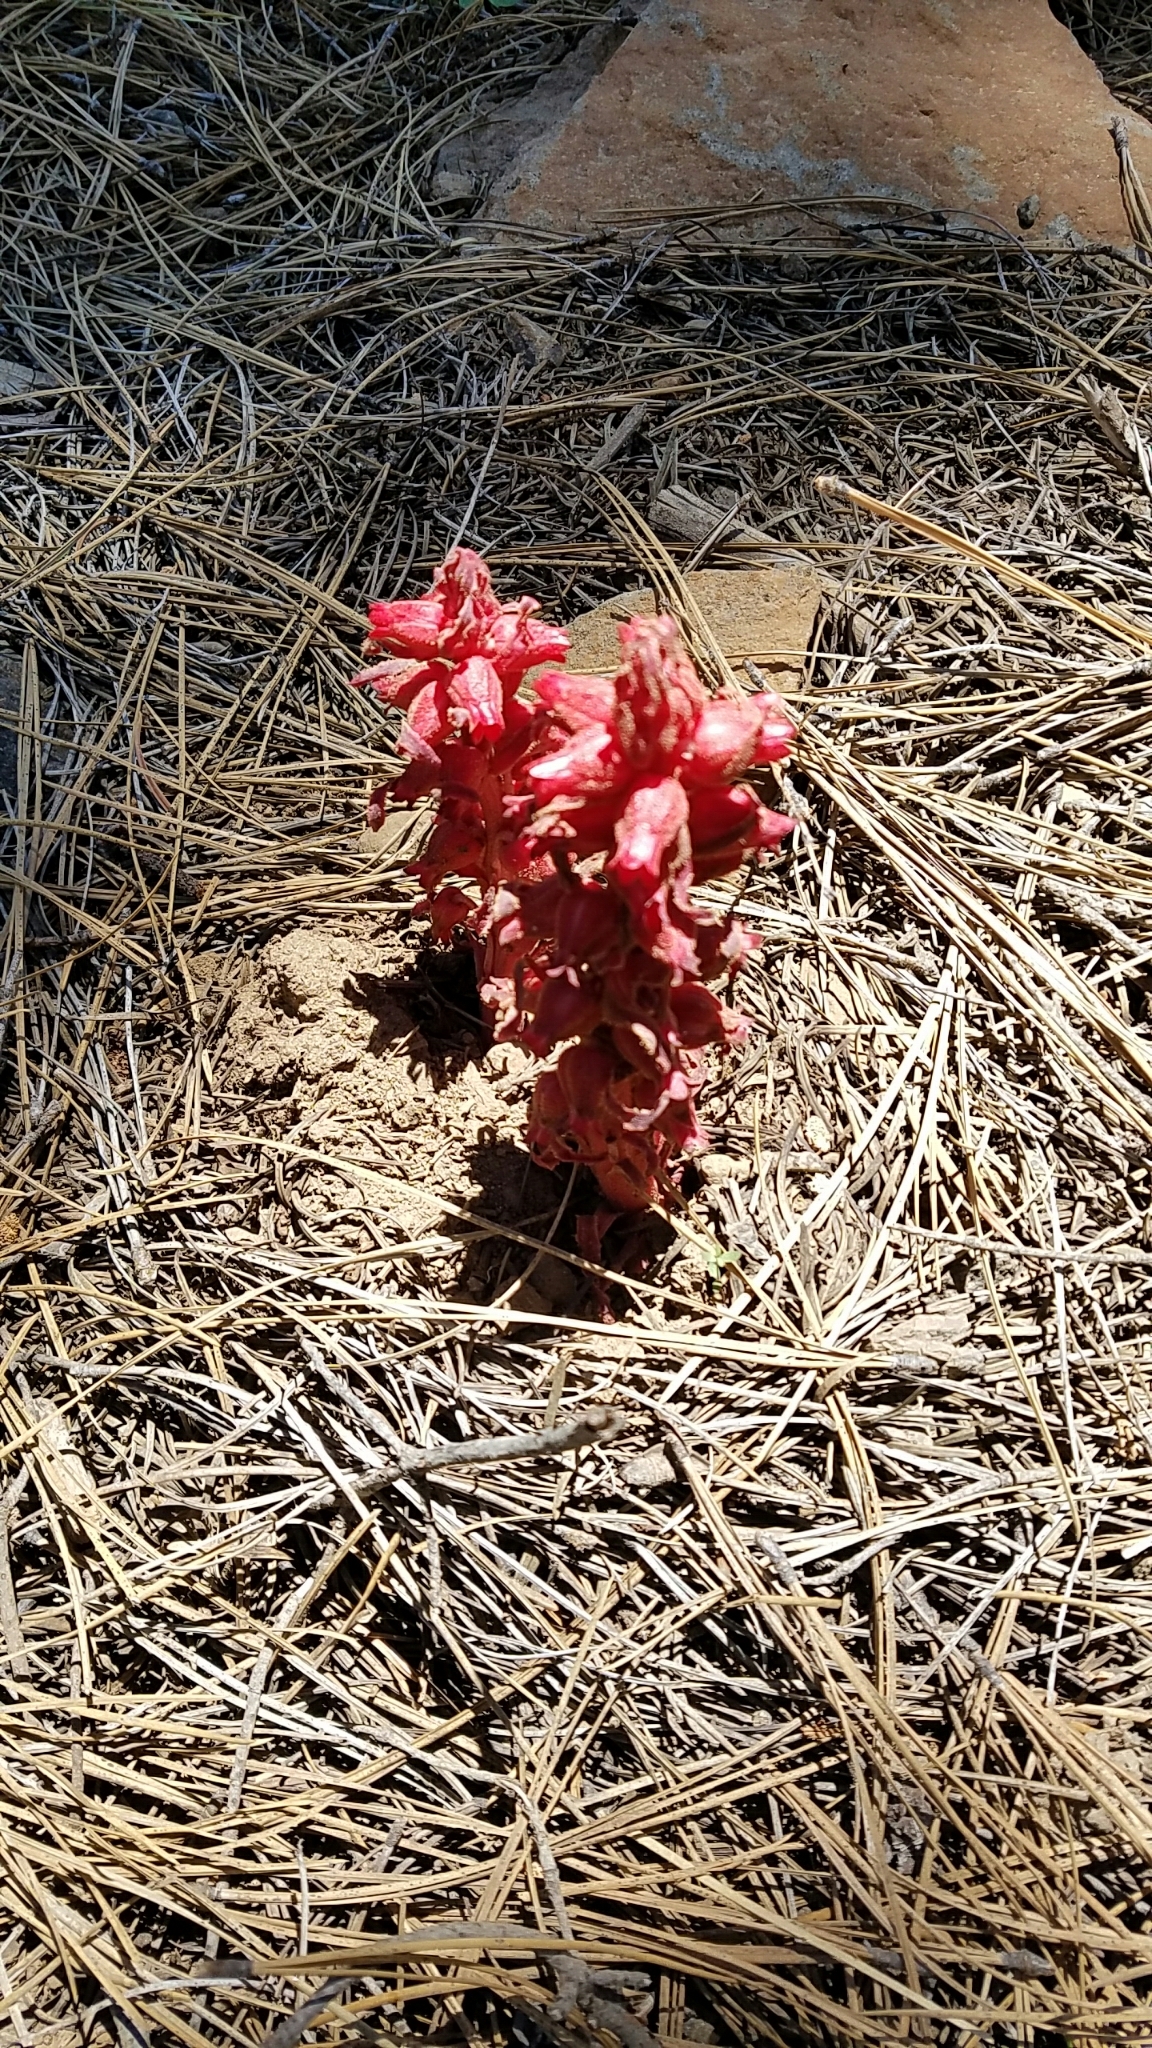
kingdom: Plantae
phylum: Tracheophyta
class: Magnoliopsida
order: Ericales
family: Ericaceae
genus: Sarcodes
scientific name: Sarcodes sanguinea
